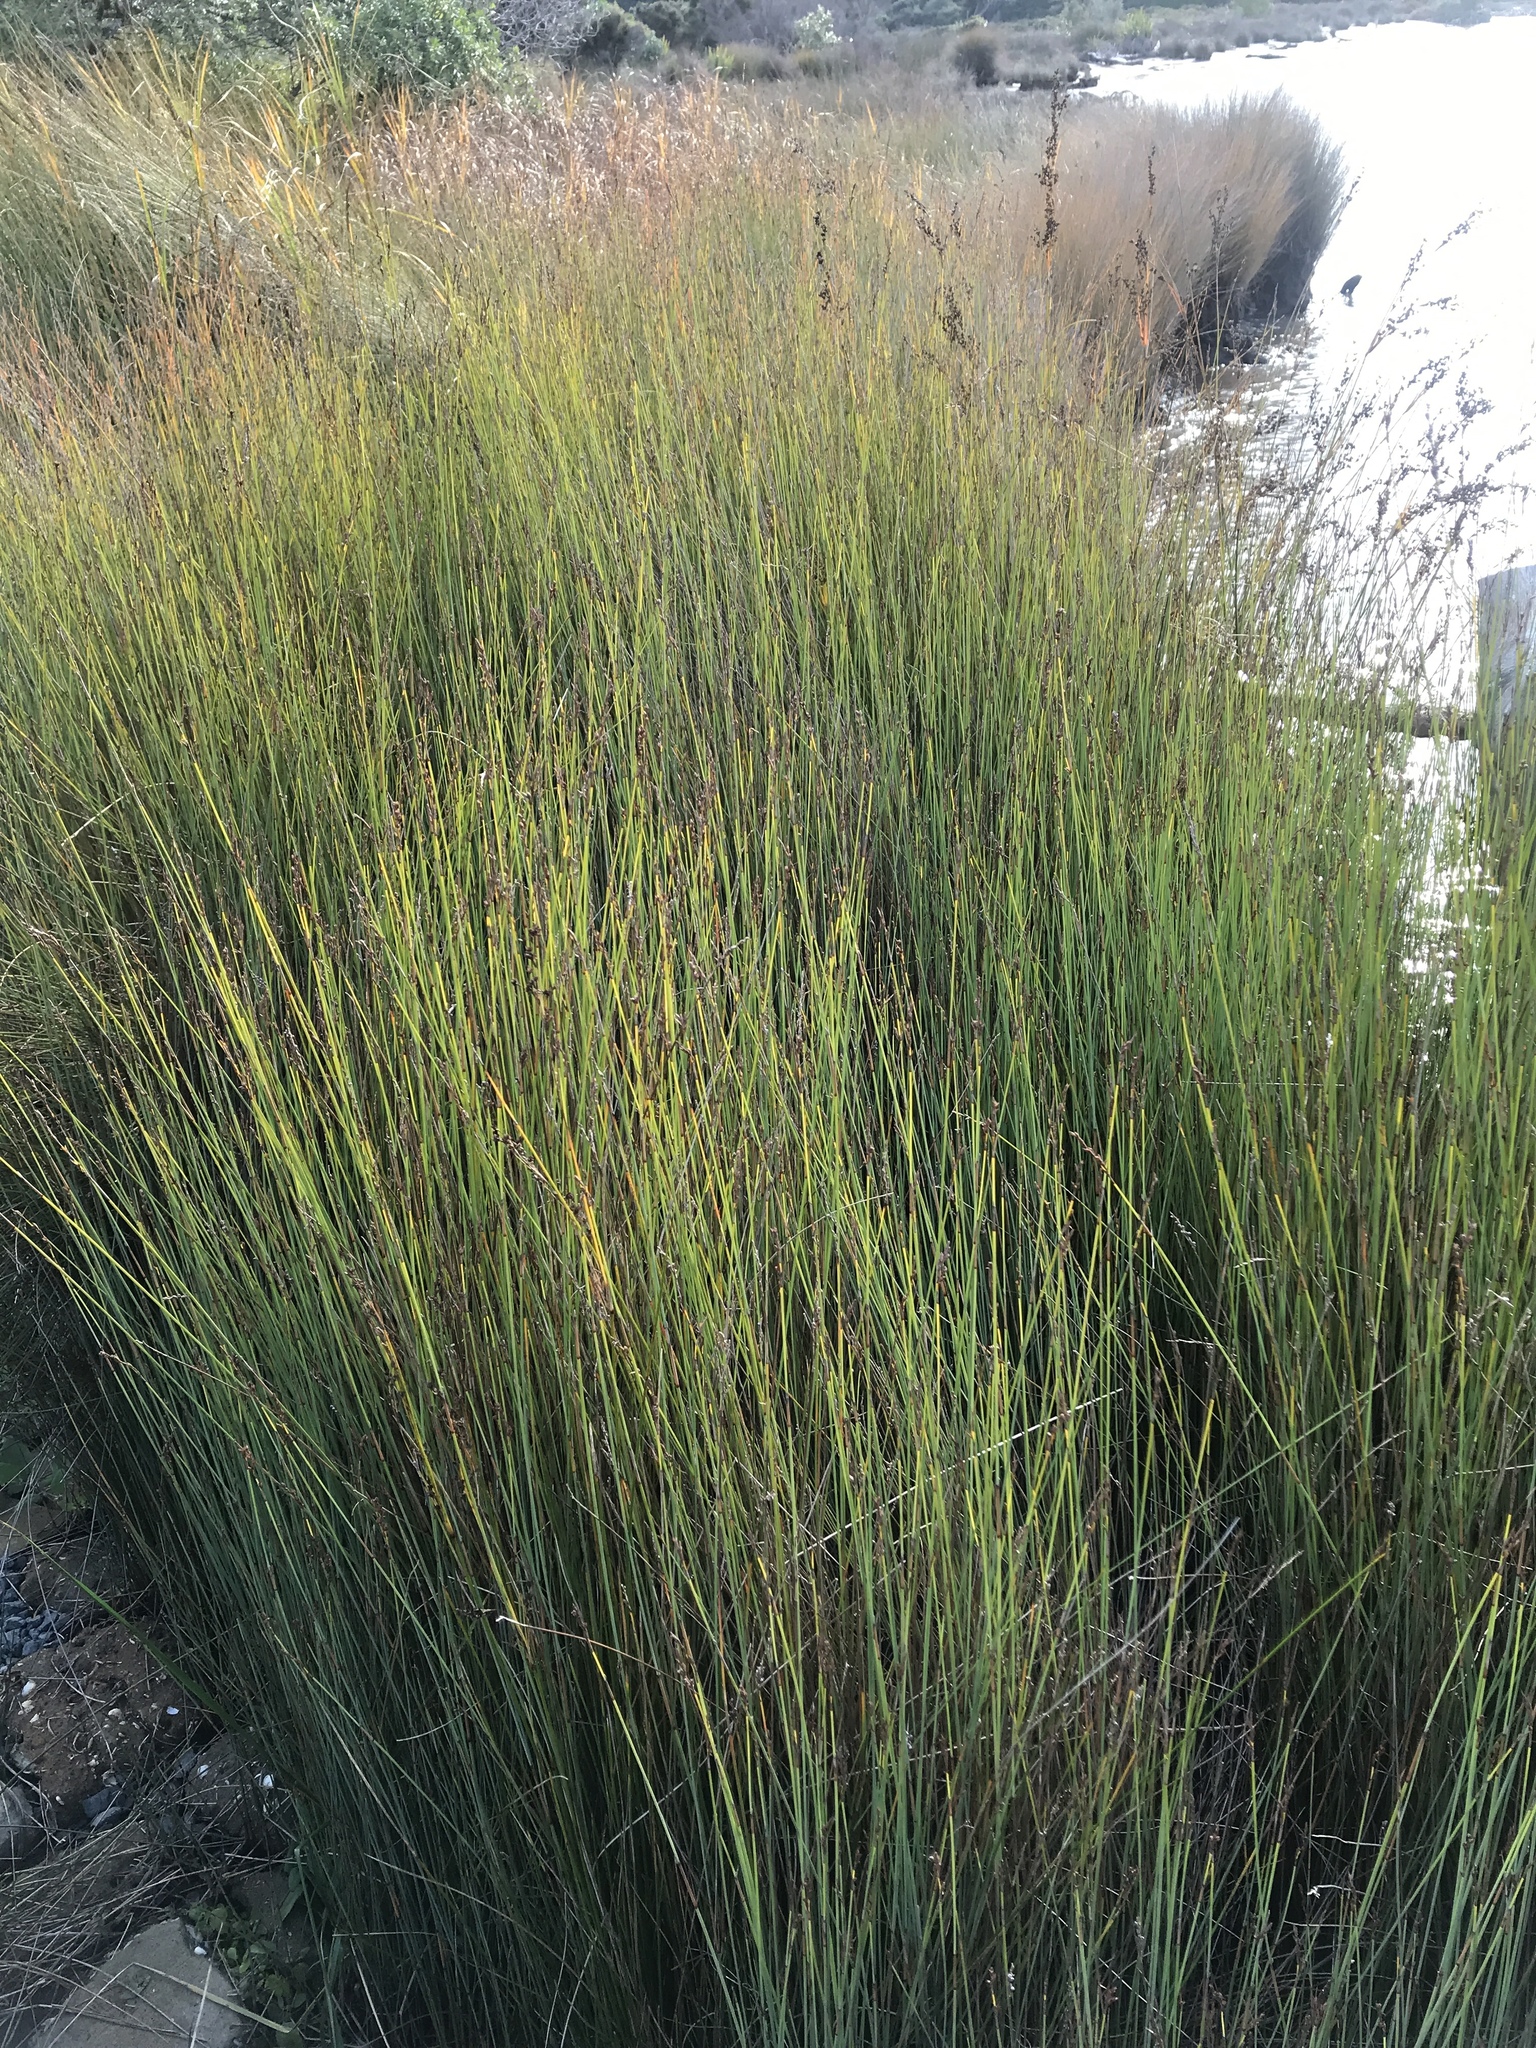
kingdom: Plantae
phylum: Tracheophyta
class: Liliopsida
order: Poales
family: Cyperaceae
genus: Machaerina
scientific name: Machaerina juncea
